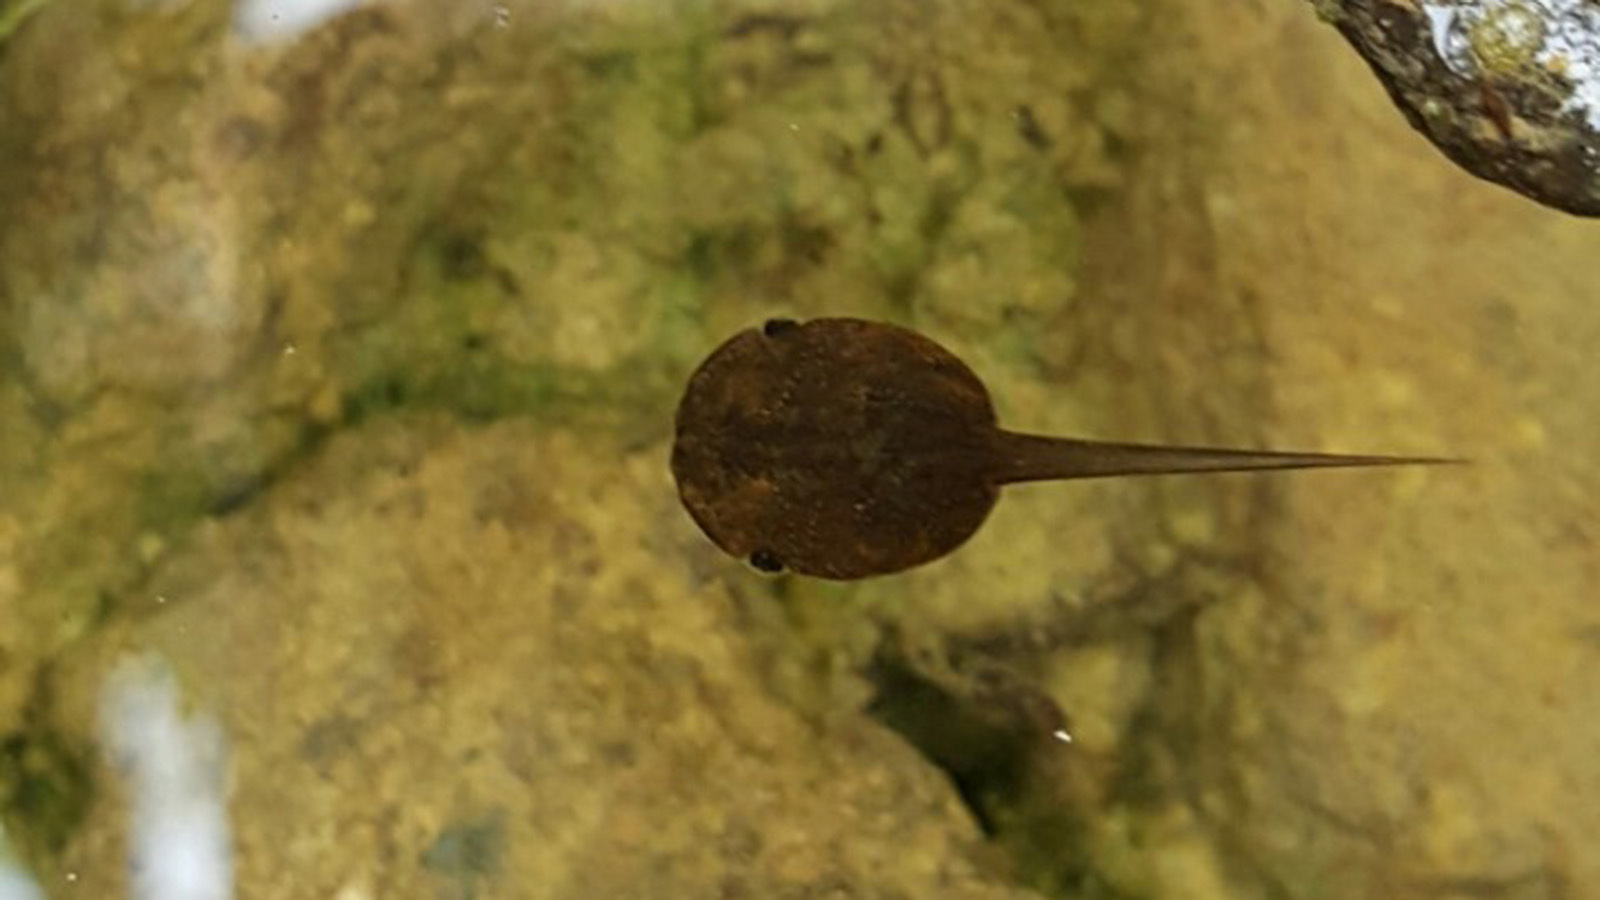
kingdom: Animalia
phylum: Chordata
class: Amphibia
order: Anura
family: Microhylidae
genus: Kaloula
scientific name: Kaloula borealis
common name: Boreal digging frog
